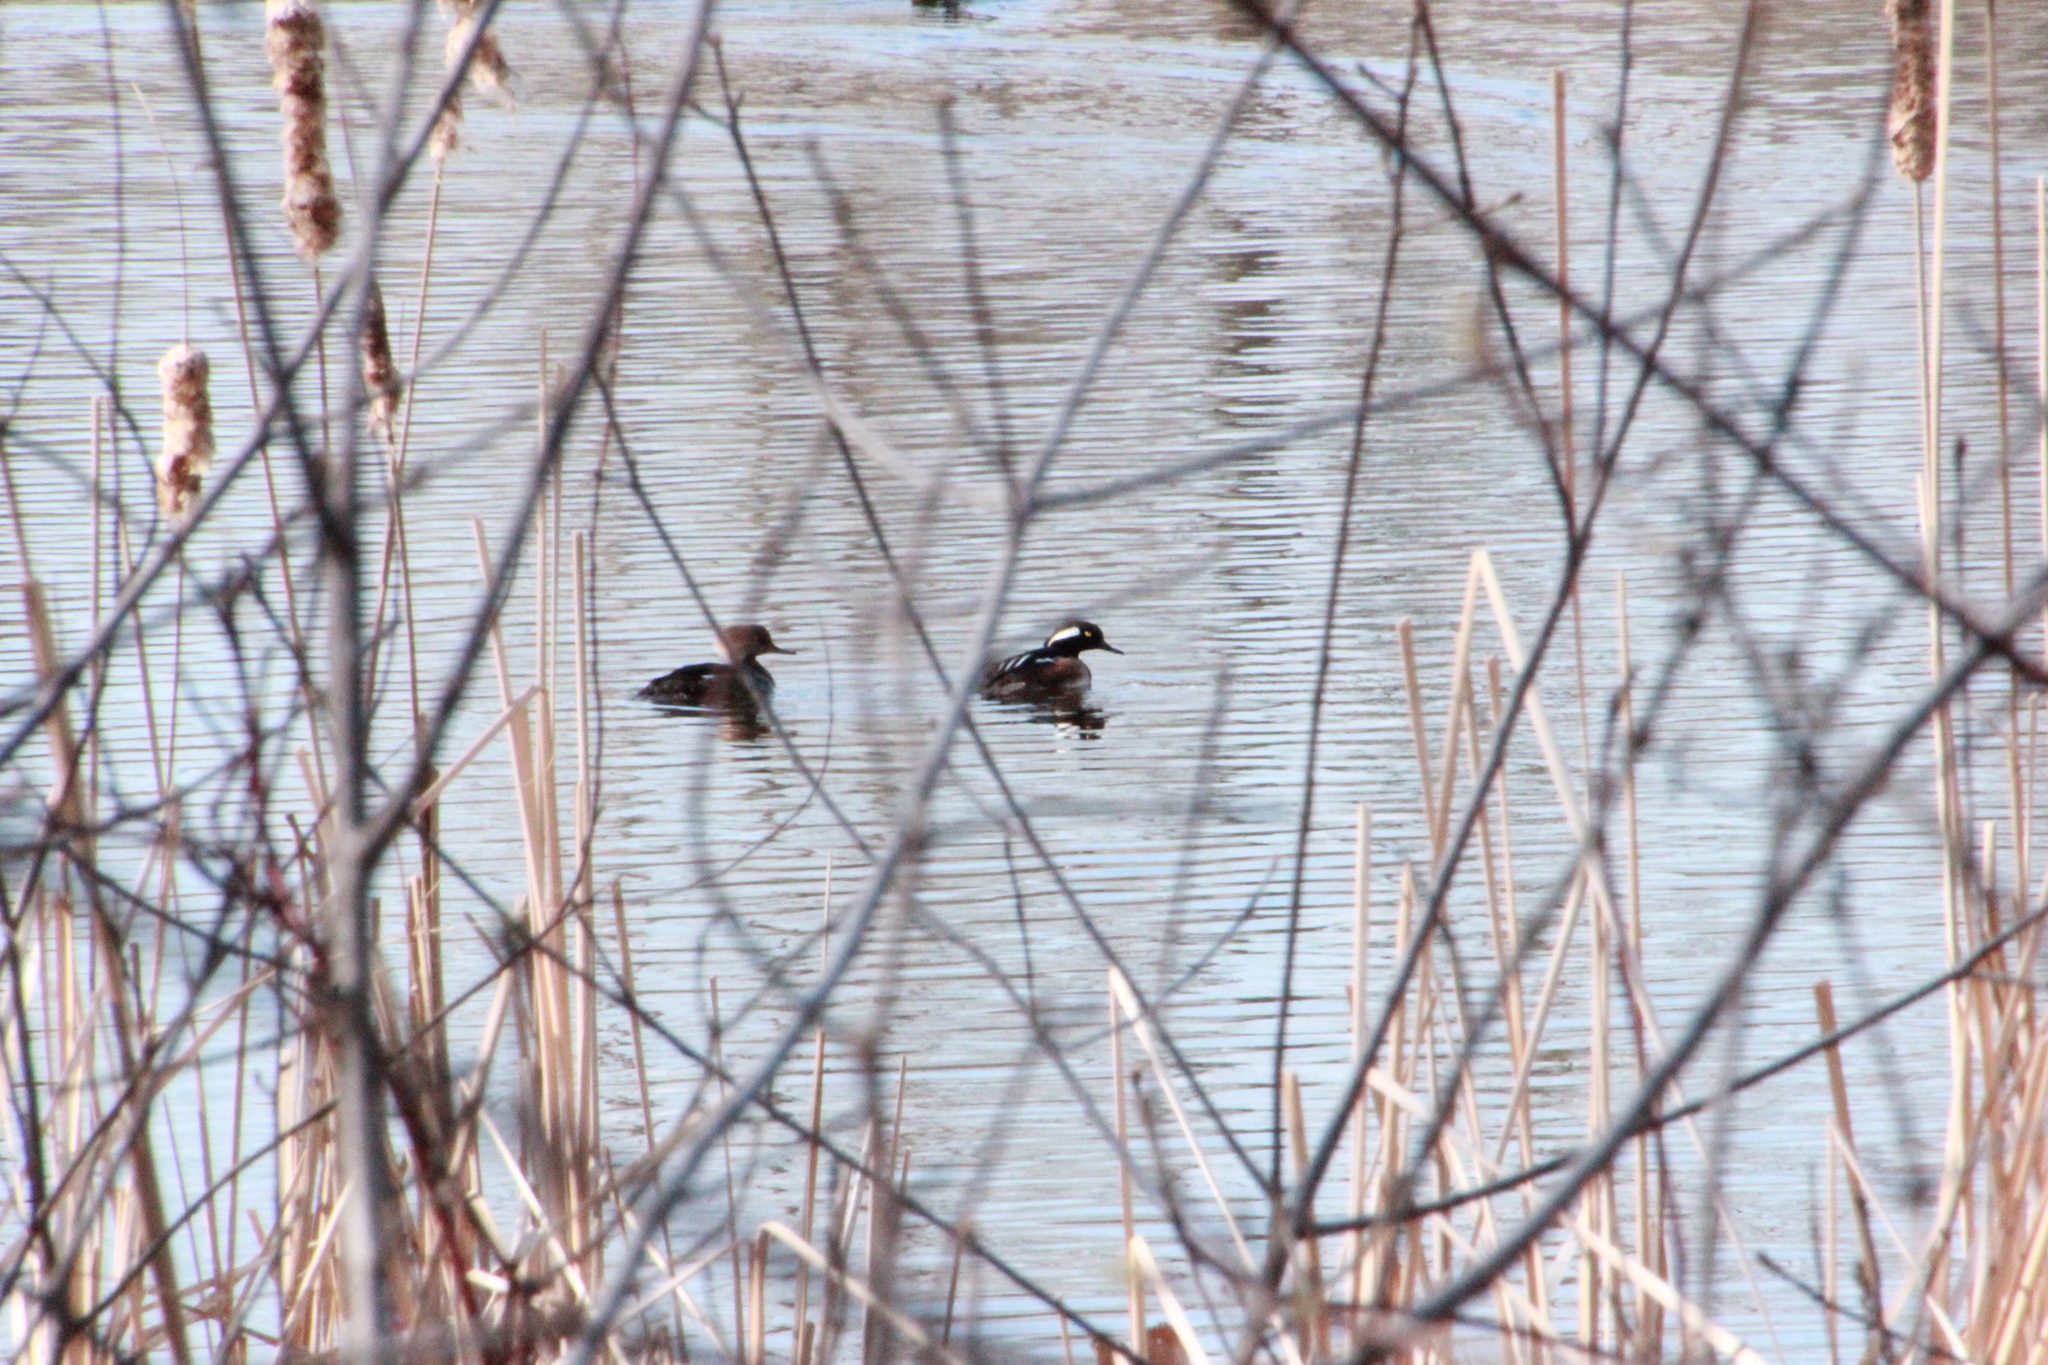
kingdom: Animalia
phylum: Chordata
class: Aves
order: Anseriformes
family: Anatidae
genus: Lophodytes
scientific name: Lophodytes cucullatus
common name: Hooded merganser
